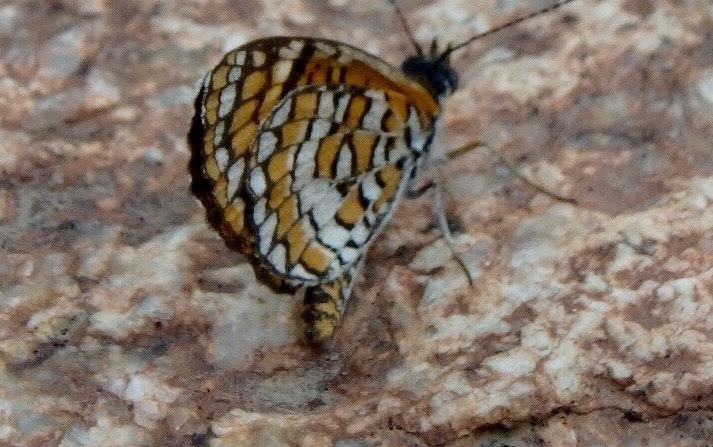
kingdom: Animalia
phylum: Arthropoda
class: Insecta
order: Lepidoptera
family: Nymphalidae
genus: Dymasia
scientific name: Dymasia dymas
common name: Tiny checkerspot
